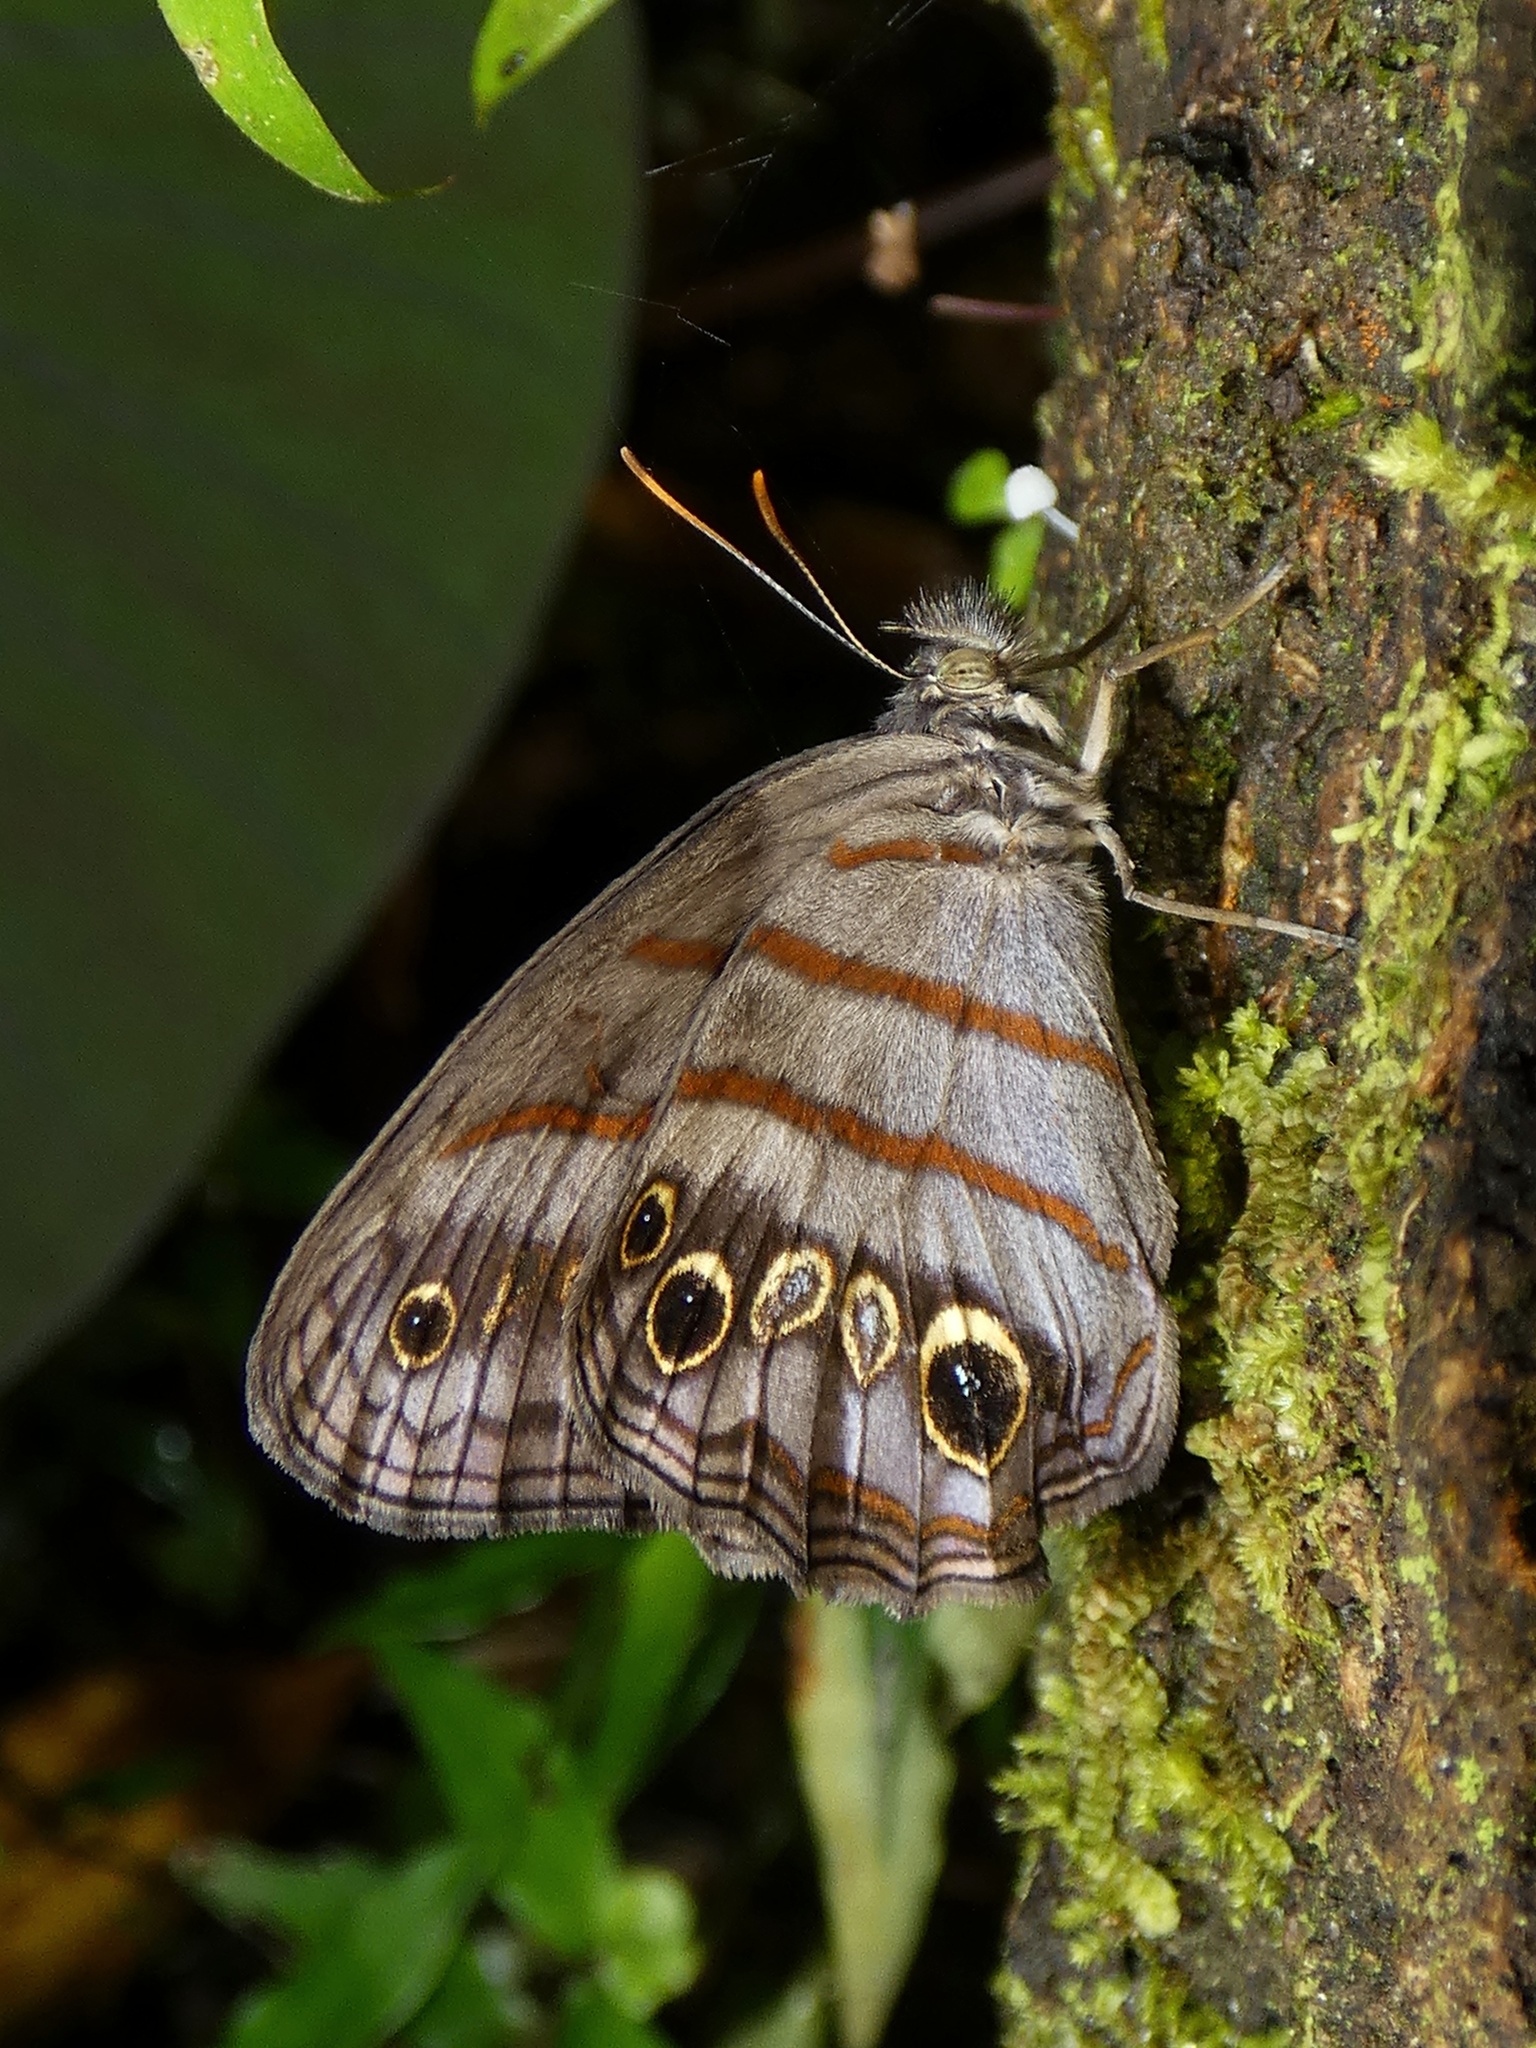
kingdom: Animalia
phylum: Arthropoda
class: Insecta
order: Lepidoptera
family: Nymphalidae
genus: Magneuptychia
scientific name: Magneuptychia libye
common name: Blue-gray satyr
